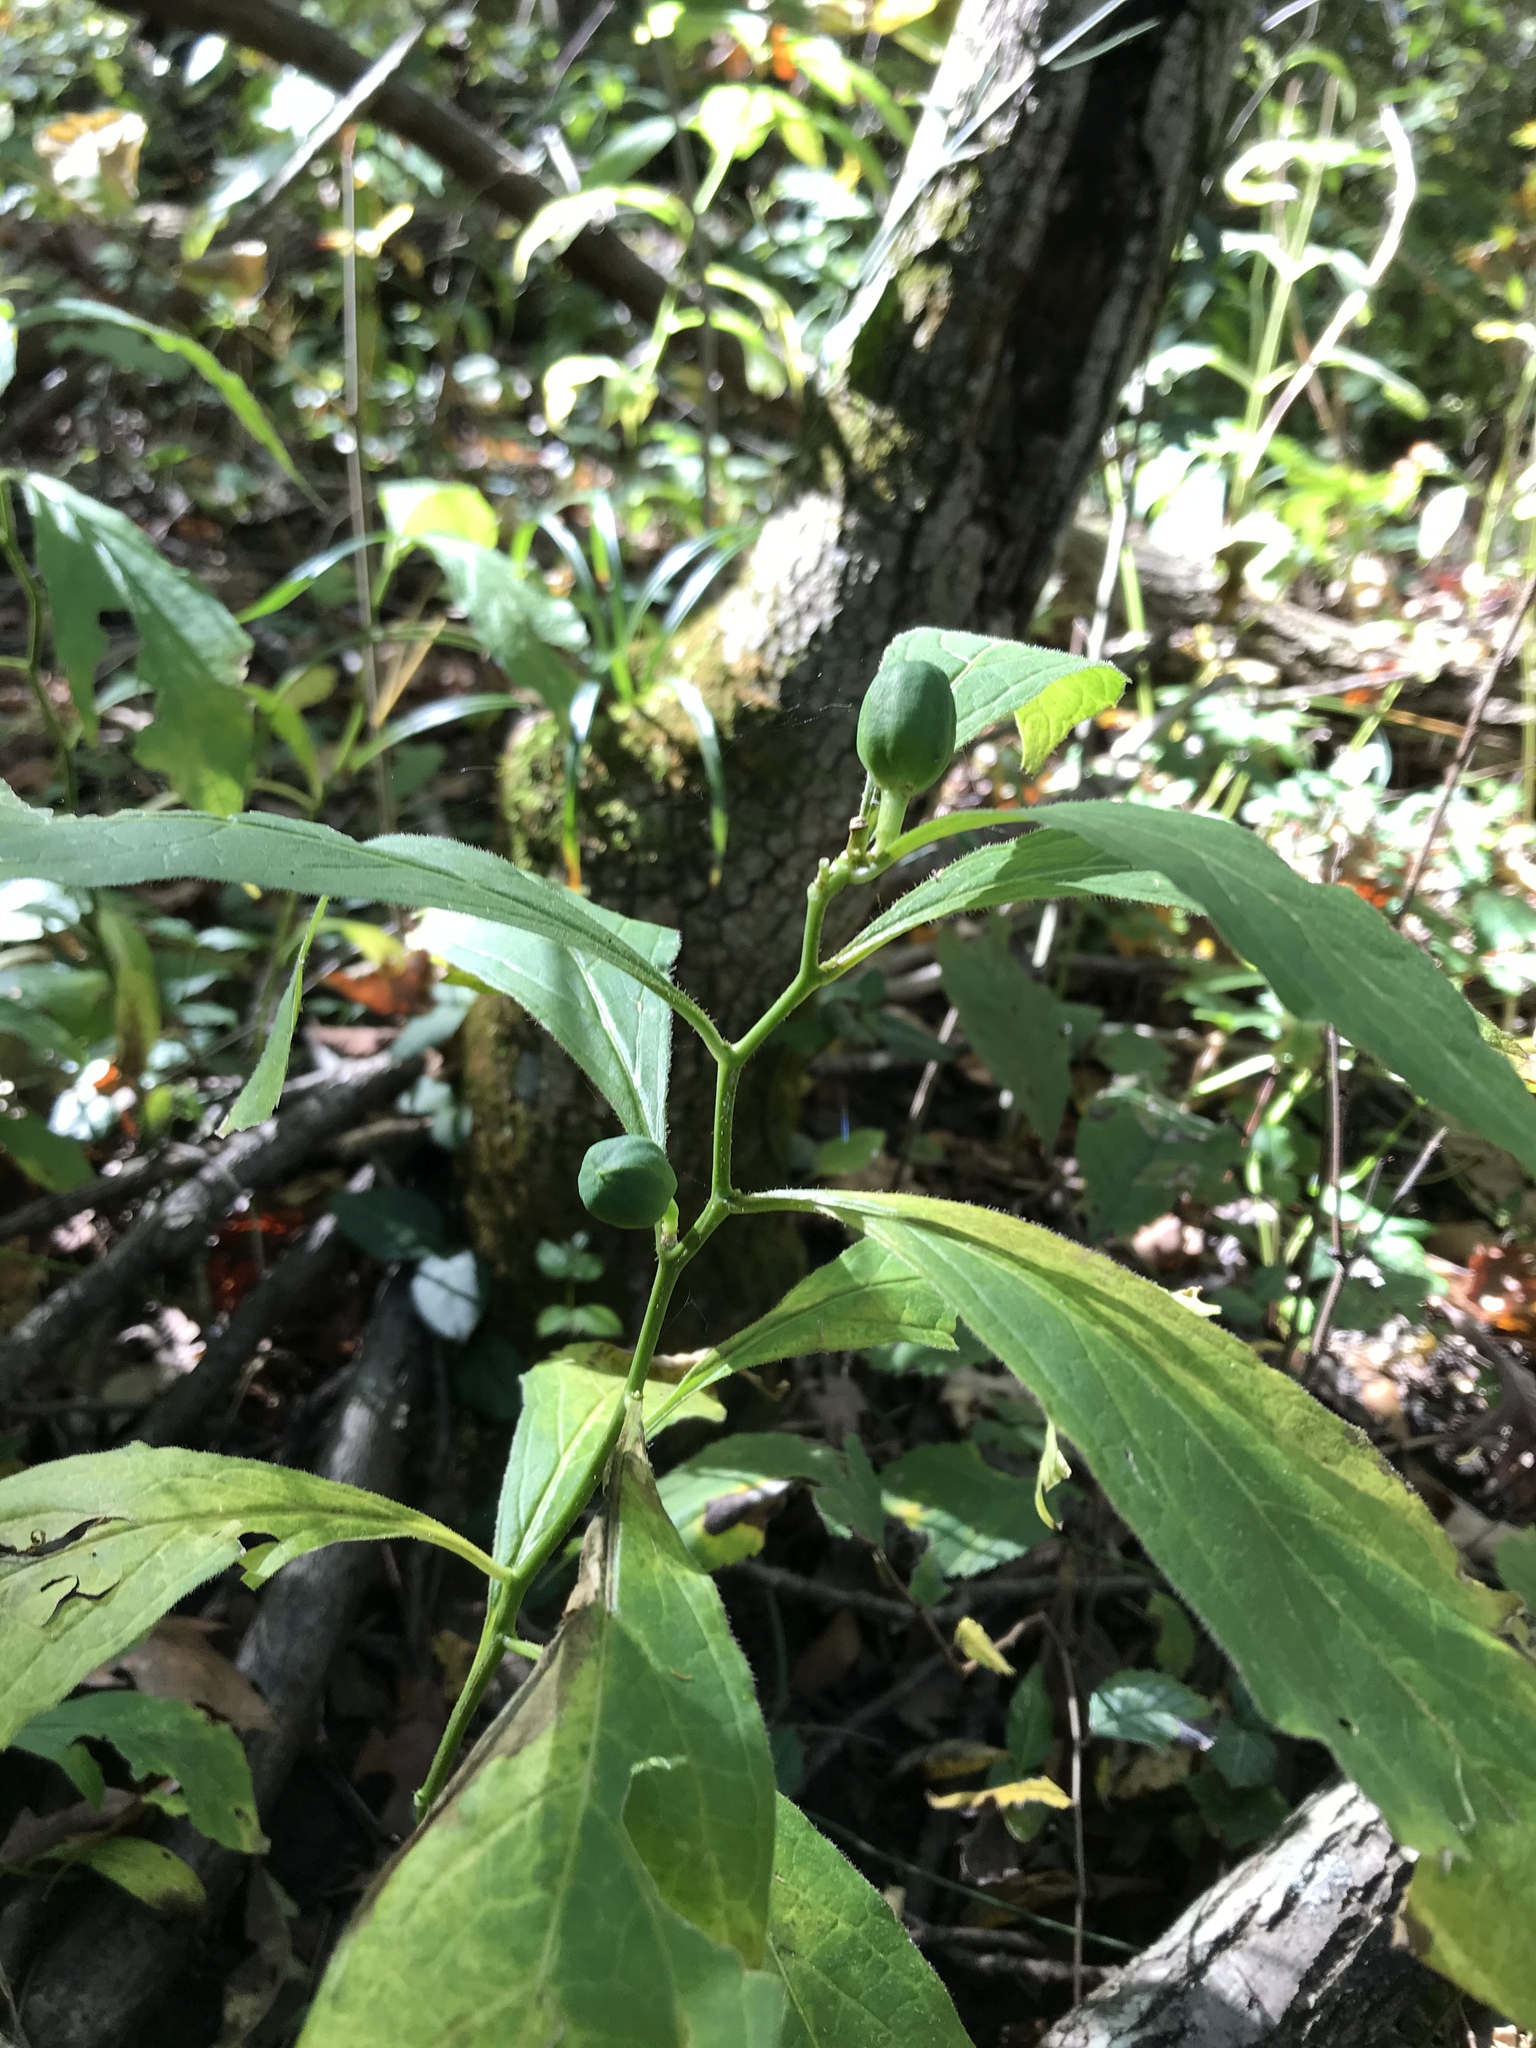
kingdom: Plantae
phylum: Tracheophyta
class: Magnoliopsida
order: Malpighiales
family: Violaceae
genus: Cubelium
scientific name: Cubelium concolor
